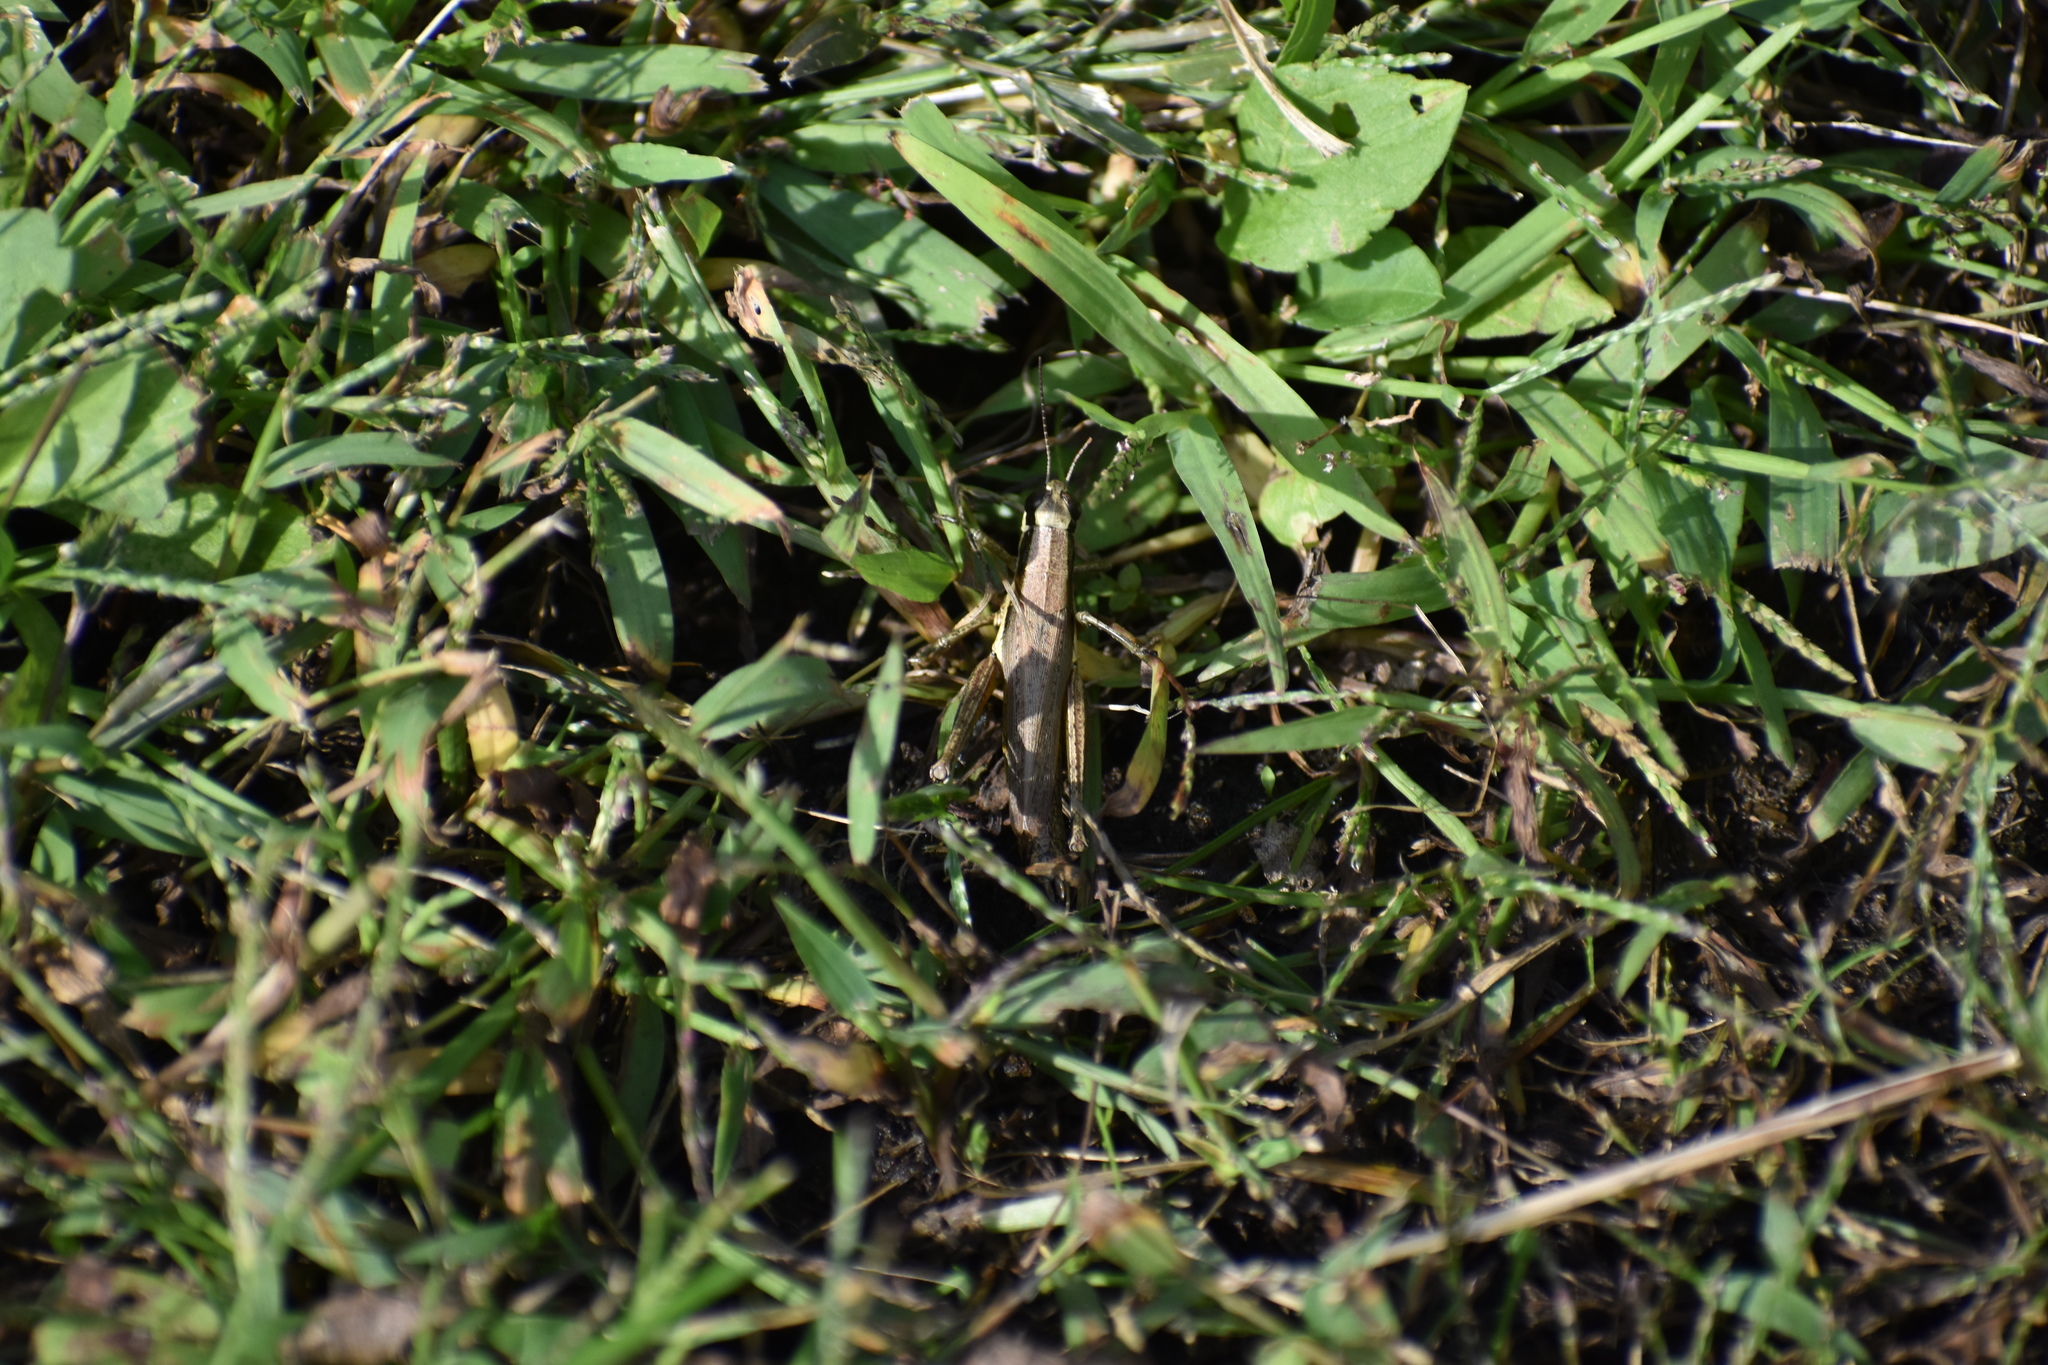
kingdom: Animalia
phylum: Arthropoda
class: Insecta
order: Orthoptera
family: Acrididae
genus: Paroxya
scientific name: Paroxya clavuligera
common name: Olive-green swamp grasshopper
